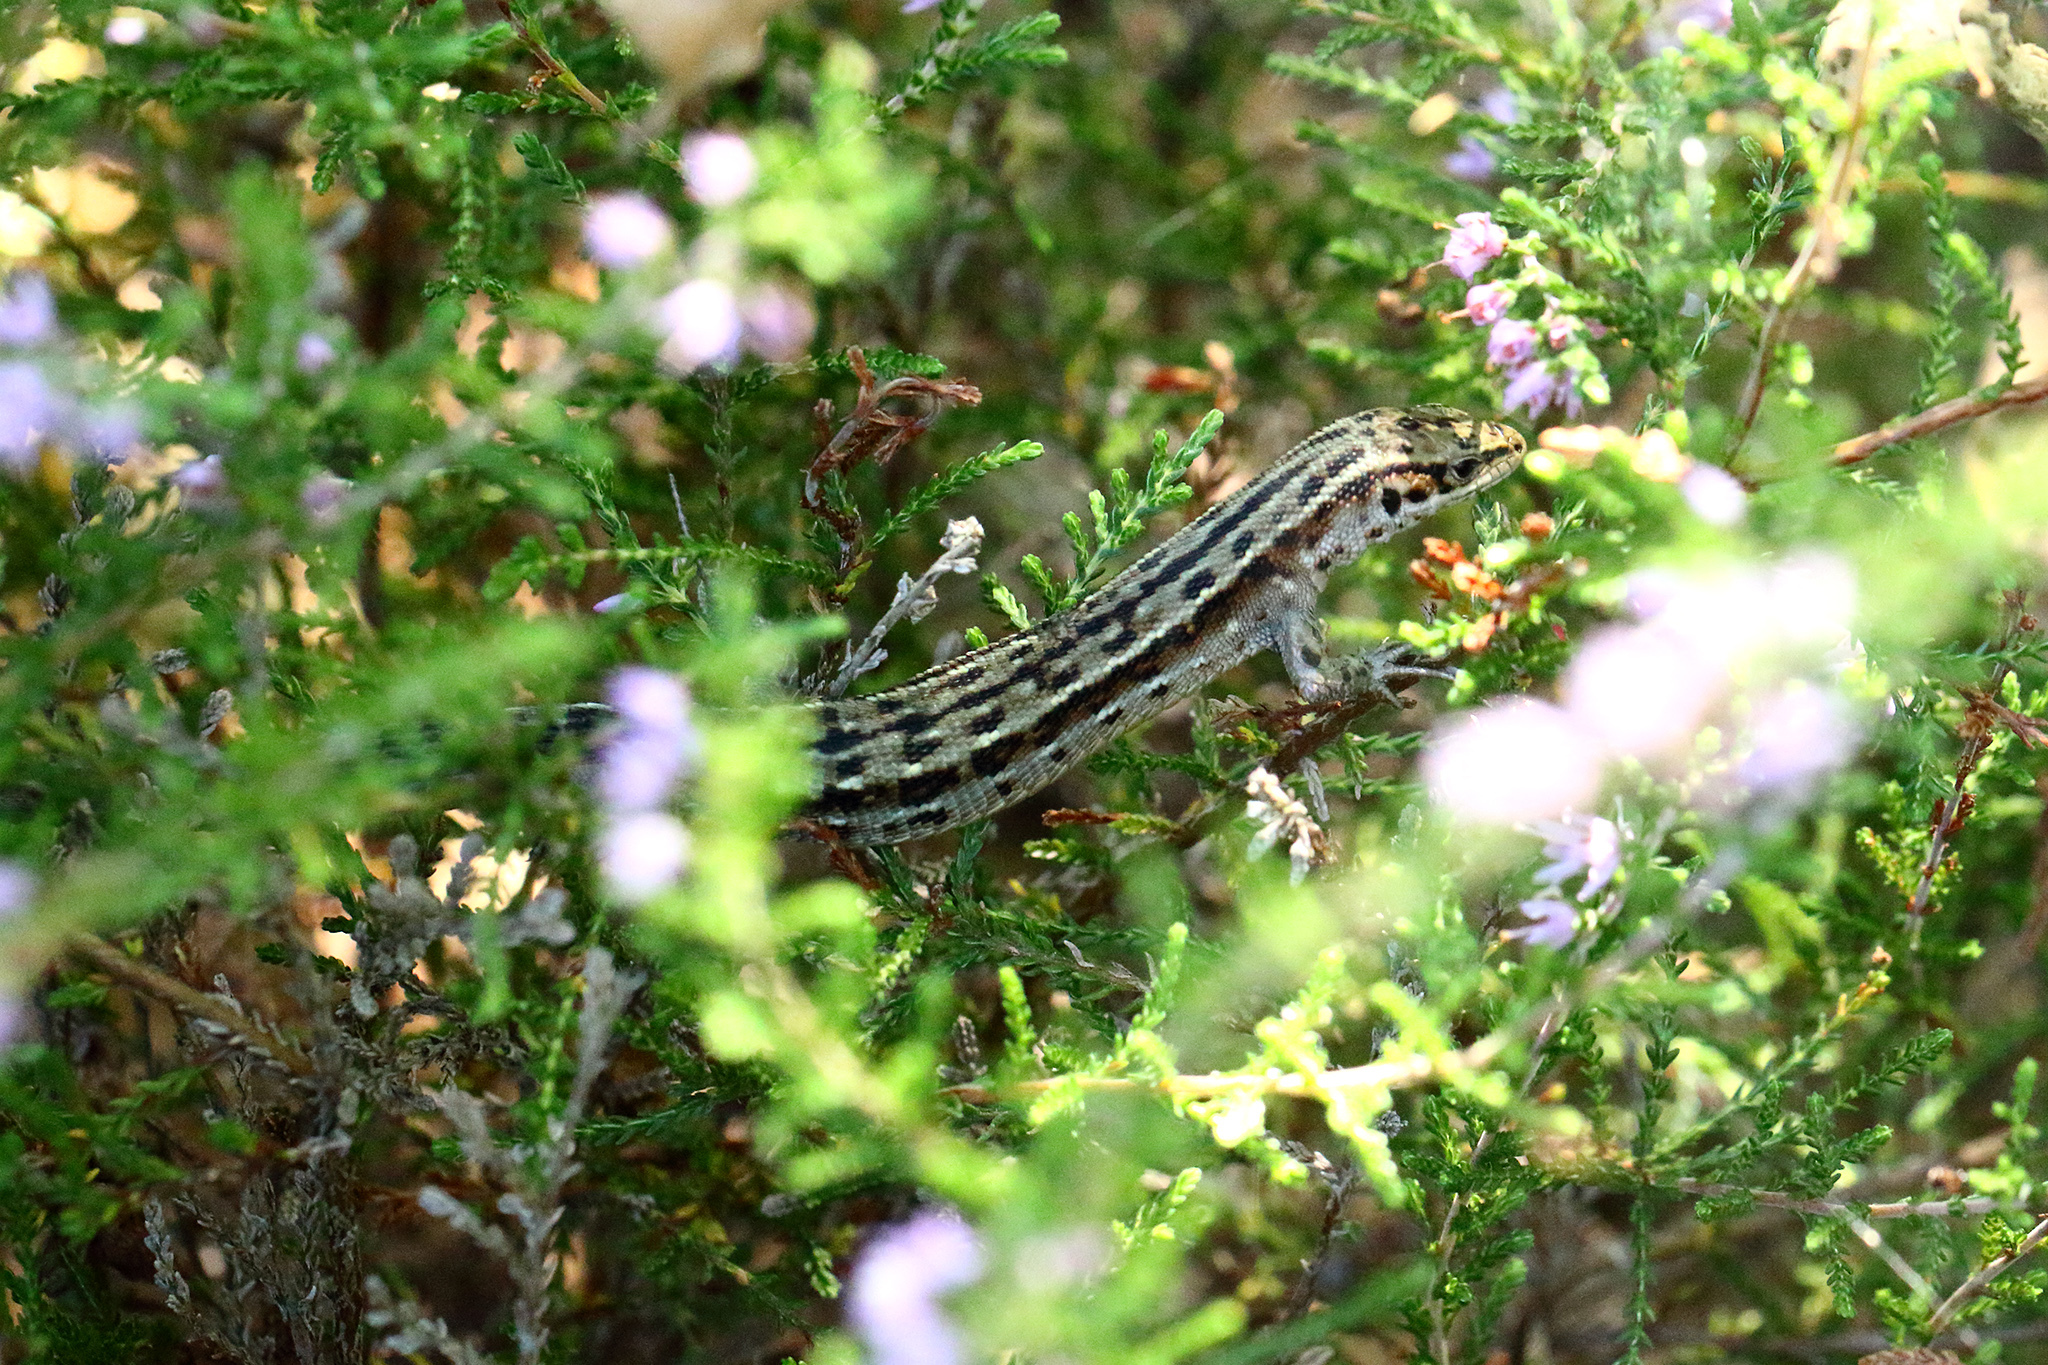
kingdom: Animalia
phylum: Chordata
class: Squamata
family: Lacertidae
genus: Zootoca
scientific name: Zootoca vivipara
